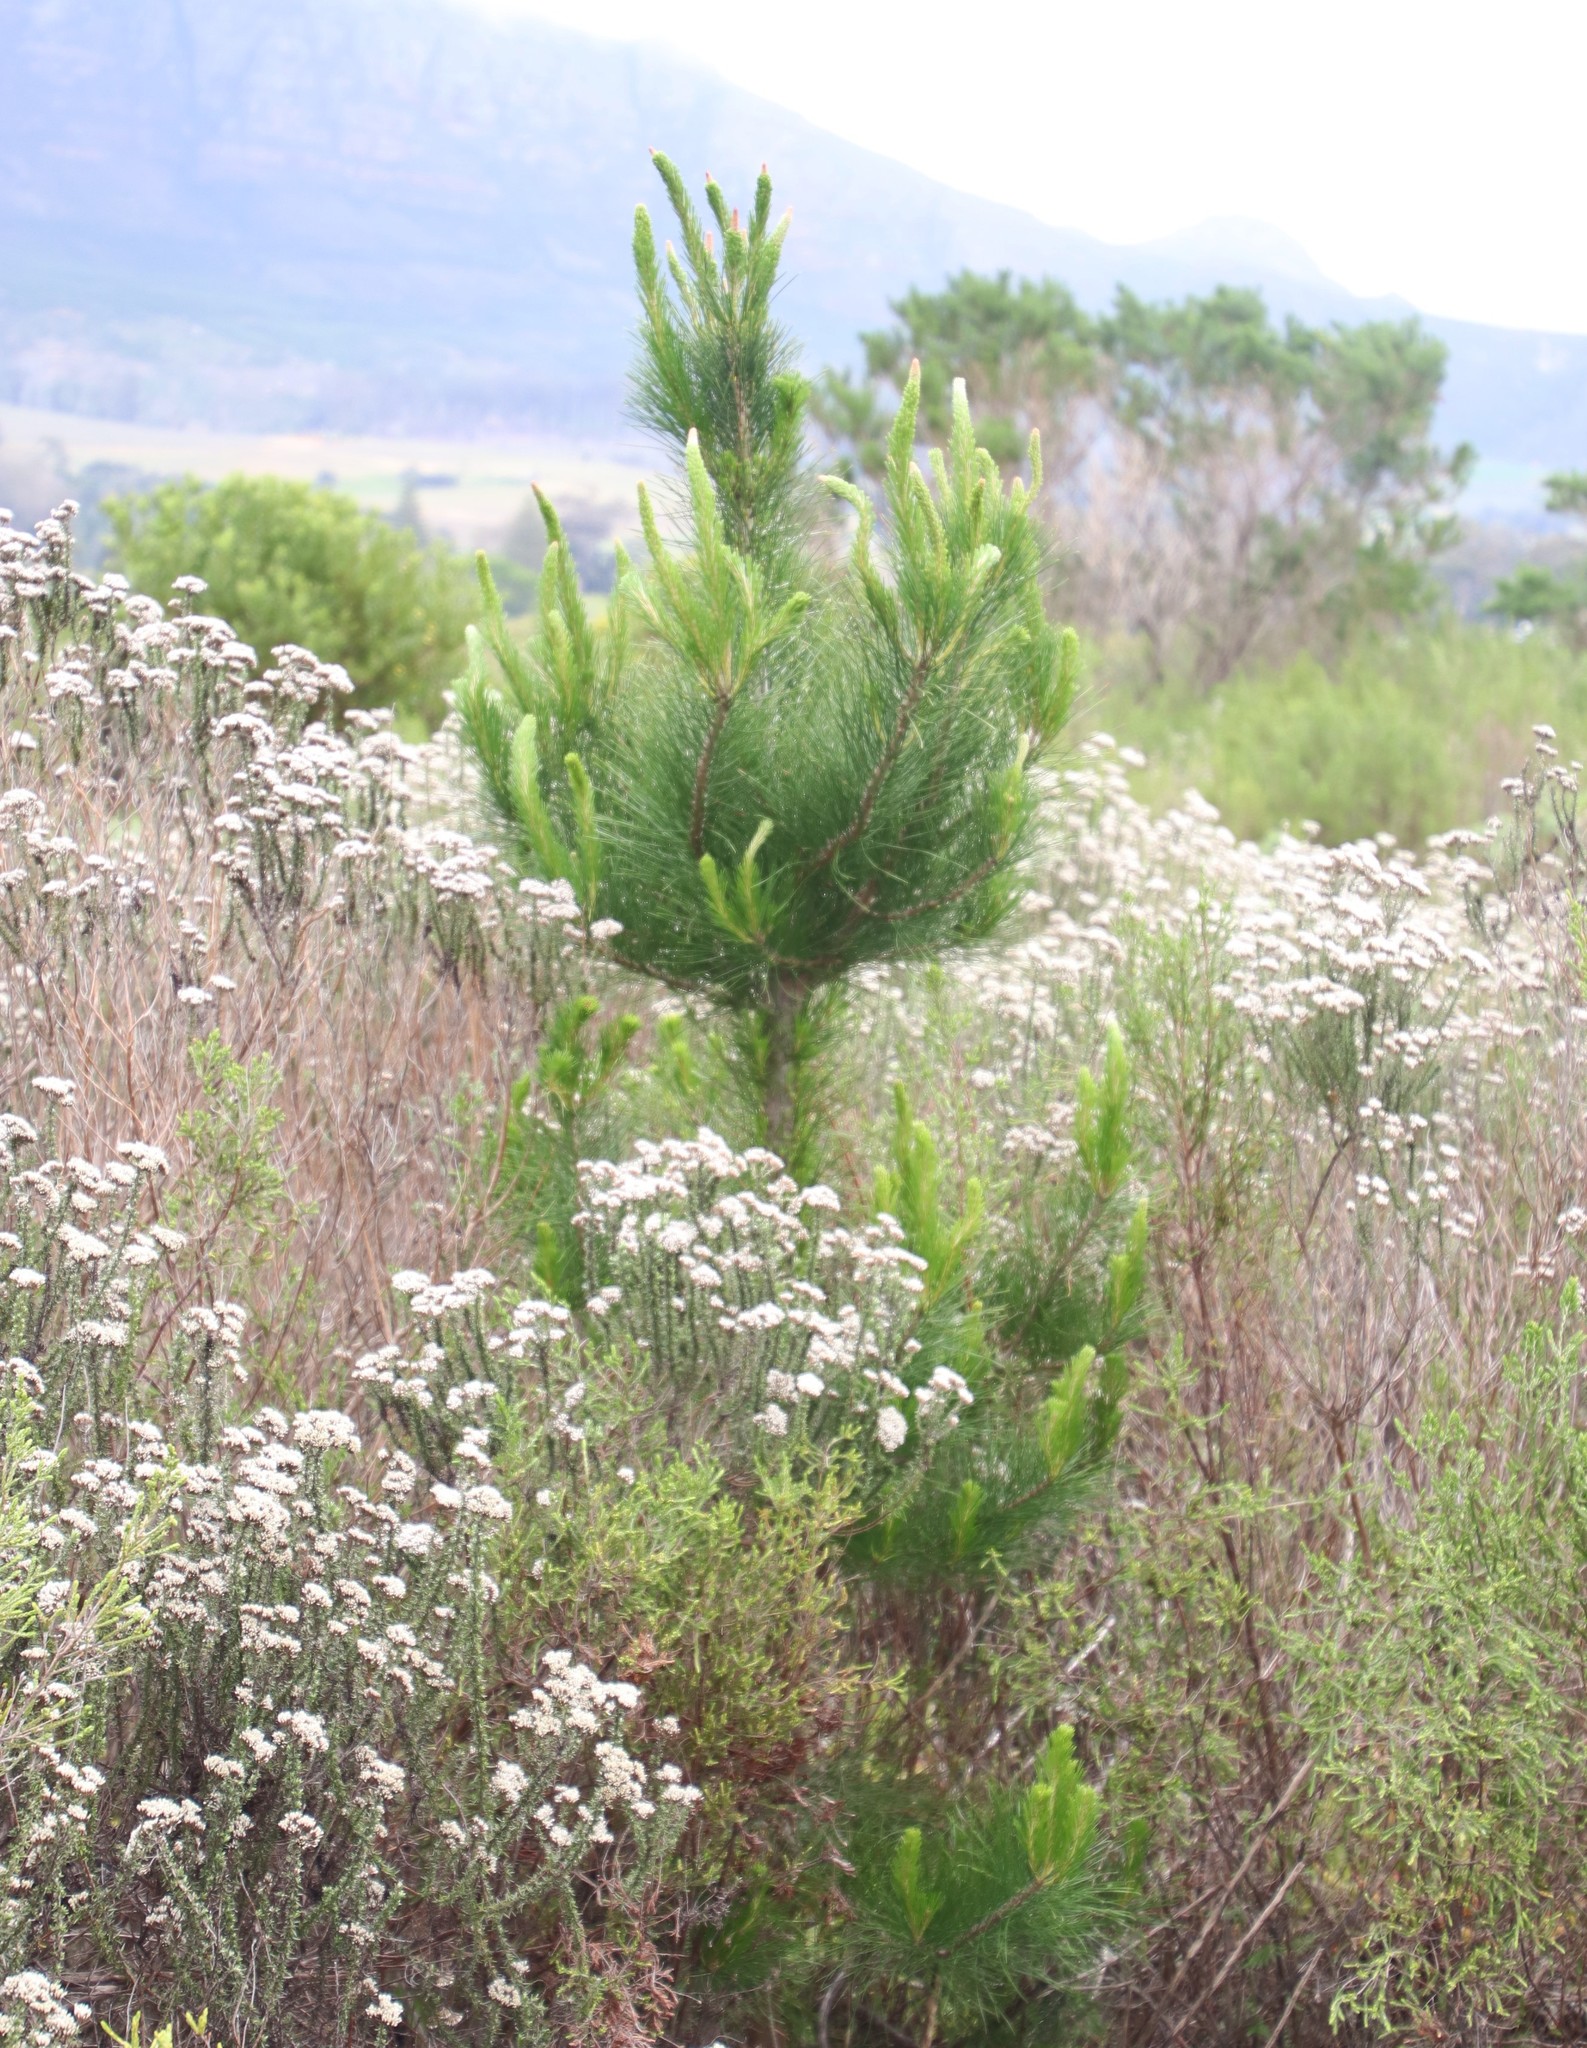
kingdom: Plantae
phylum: Tracheophyta
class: Pinopsida
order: Pinales
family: Pinaceae
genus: Pinus
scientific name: Pinus radiata
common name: Monterey pine
